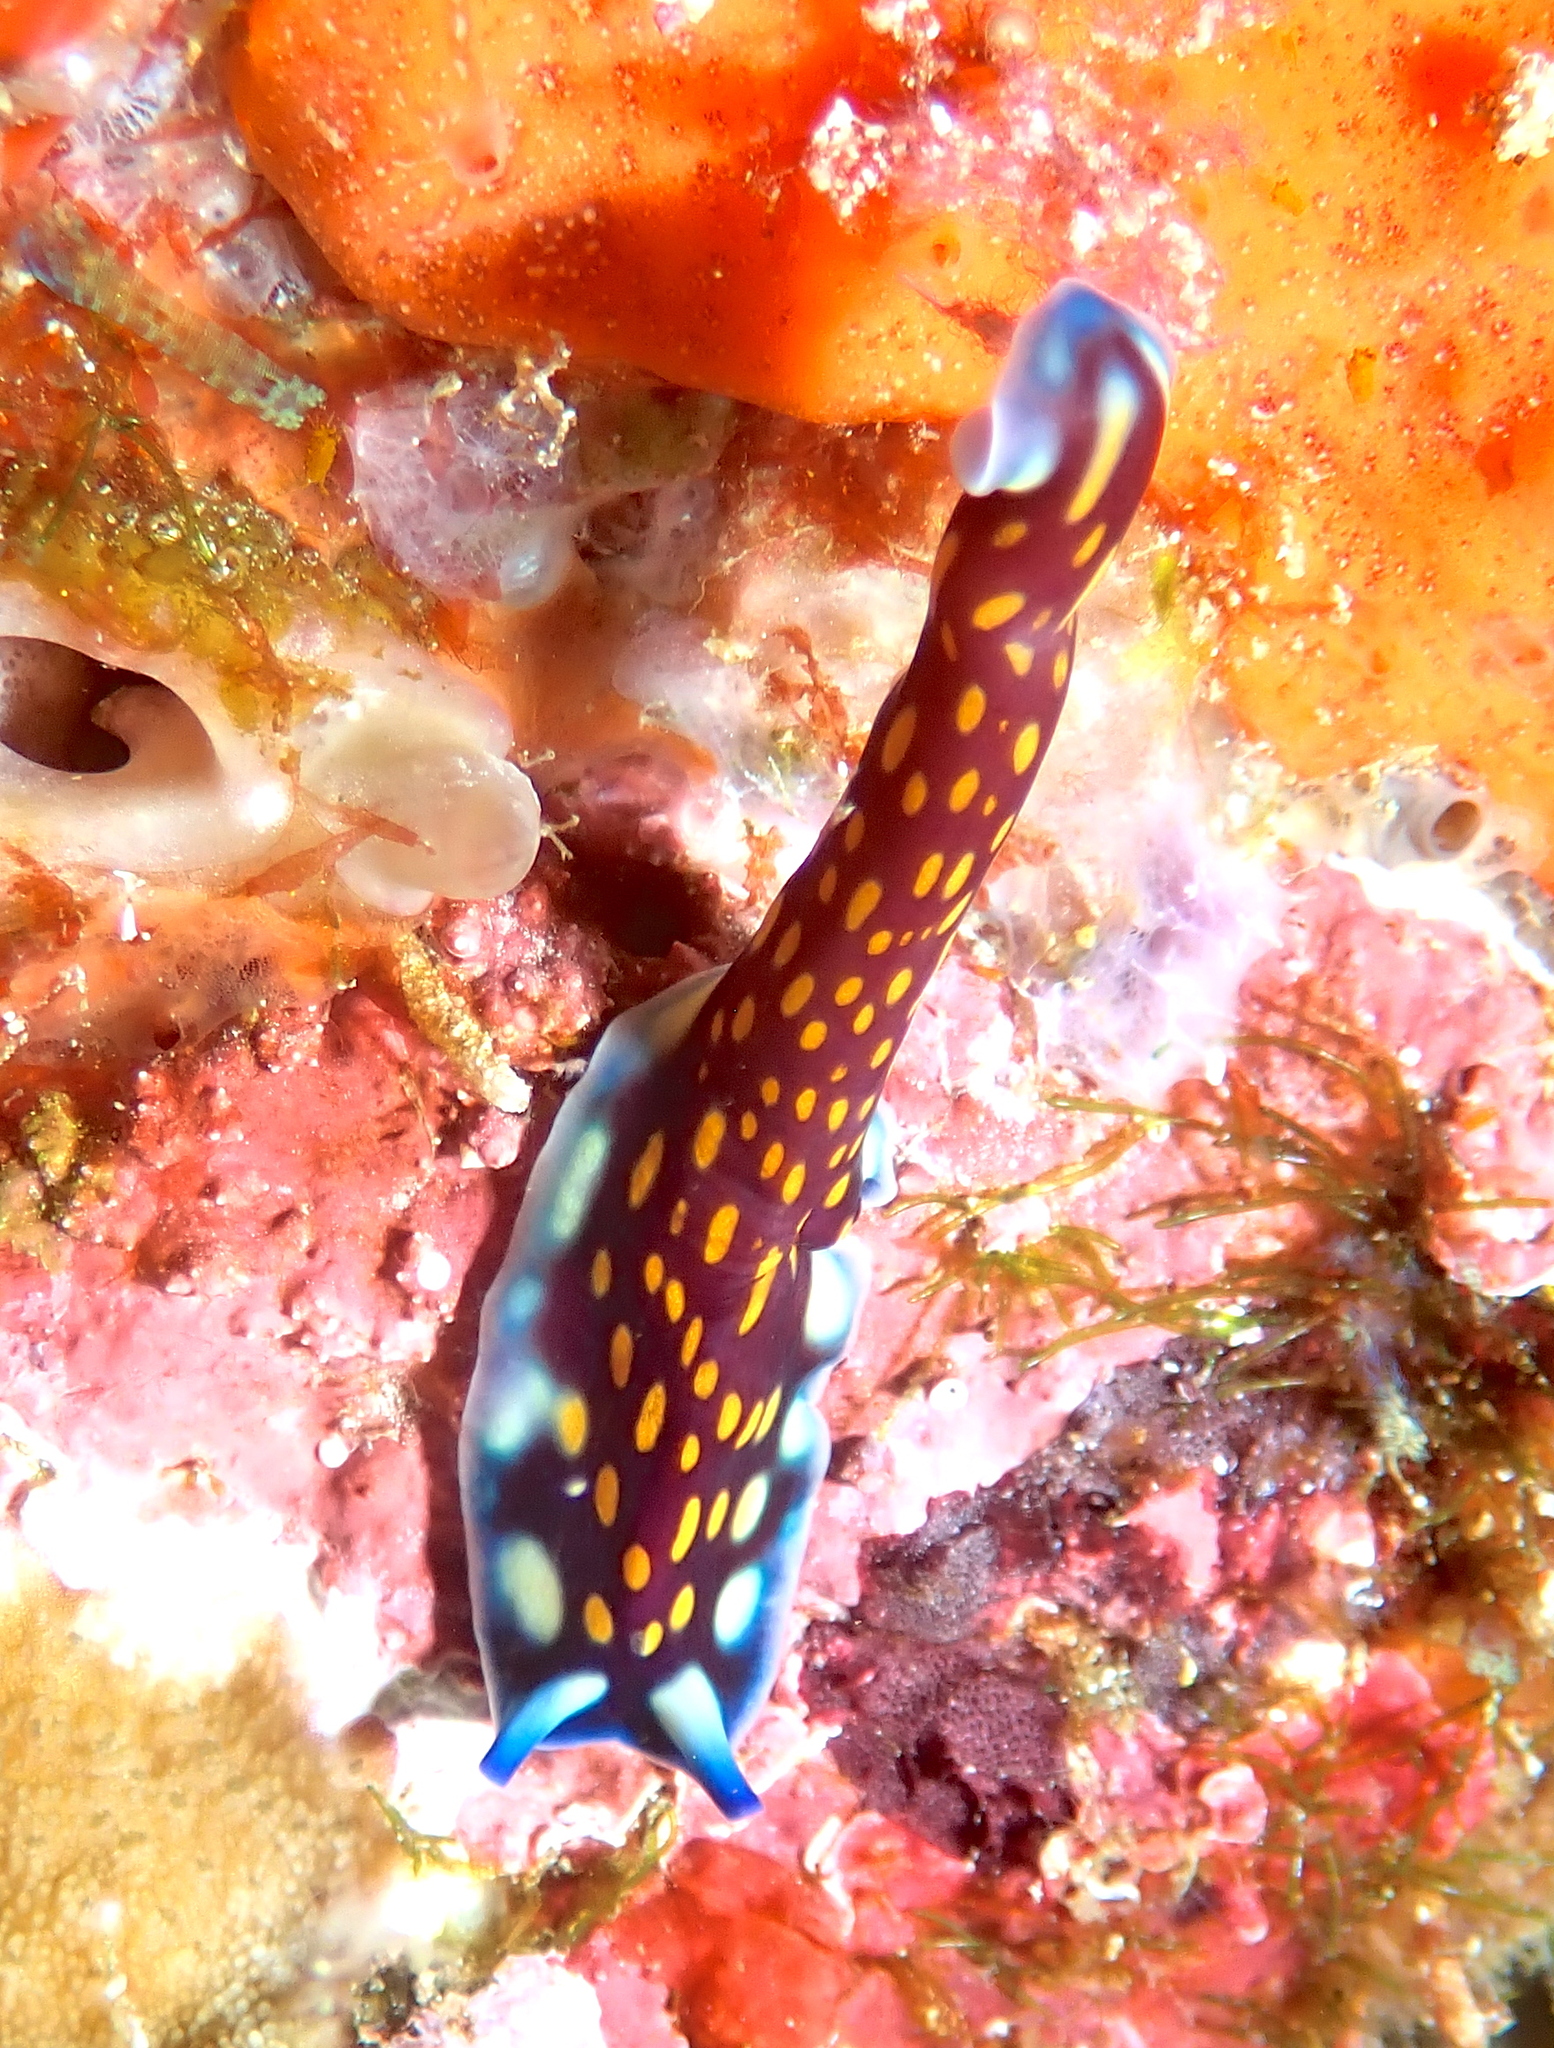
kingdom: Animalia
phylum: Platyhelminthes
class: Turbellaria
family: Pseudocerotidae
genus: Pseudoceros
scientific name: Pseudoceros lindae
